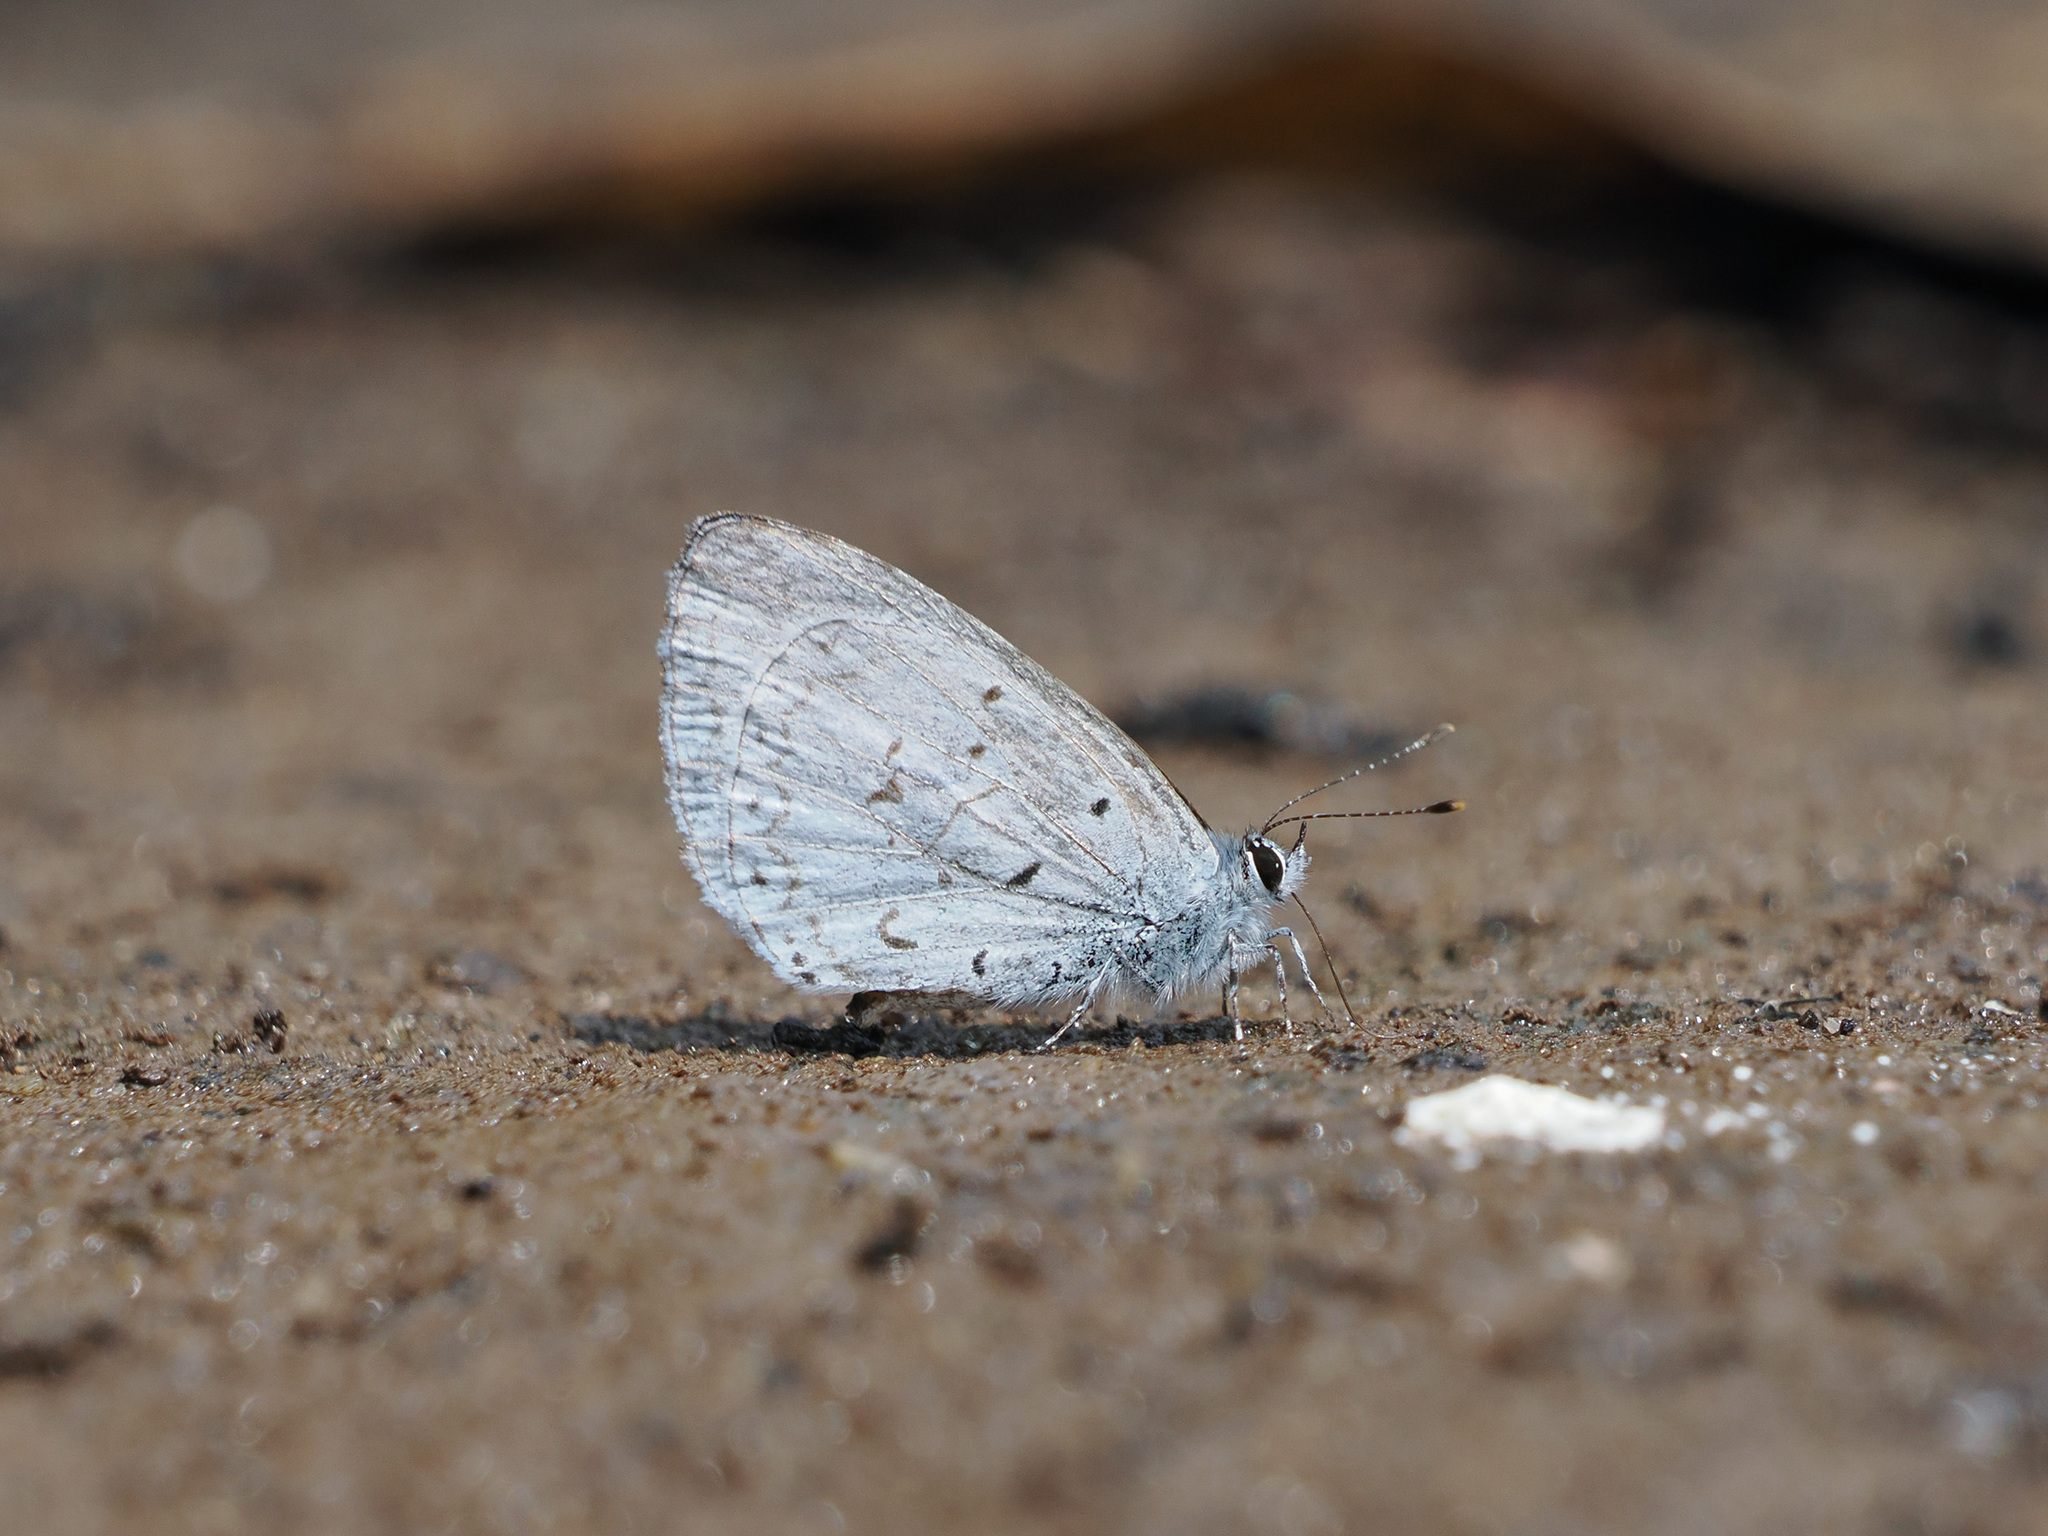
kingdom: Animalia
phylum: Arthropoda
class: Insecta
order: Lepidoptera
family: Lycaenidae
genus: Udara
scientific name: Udara dilectus
